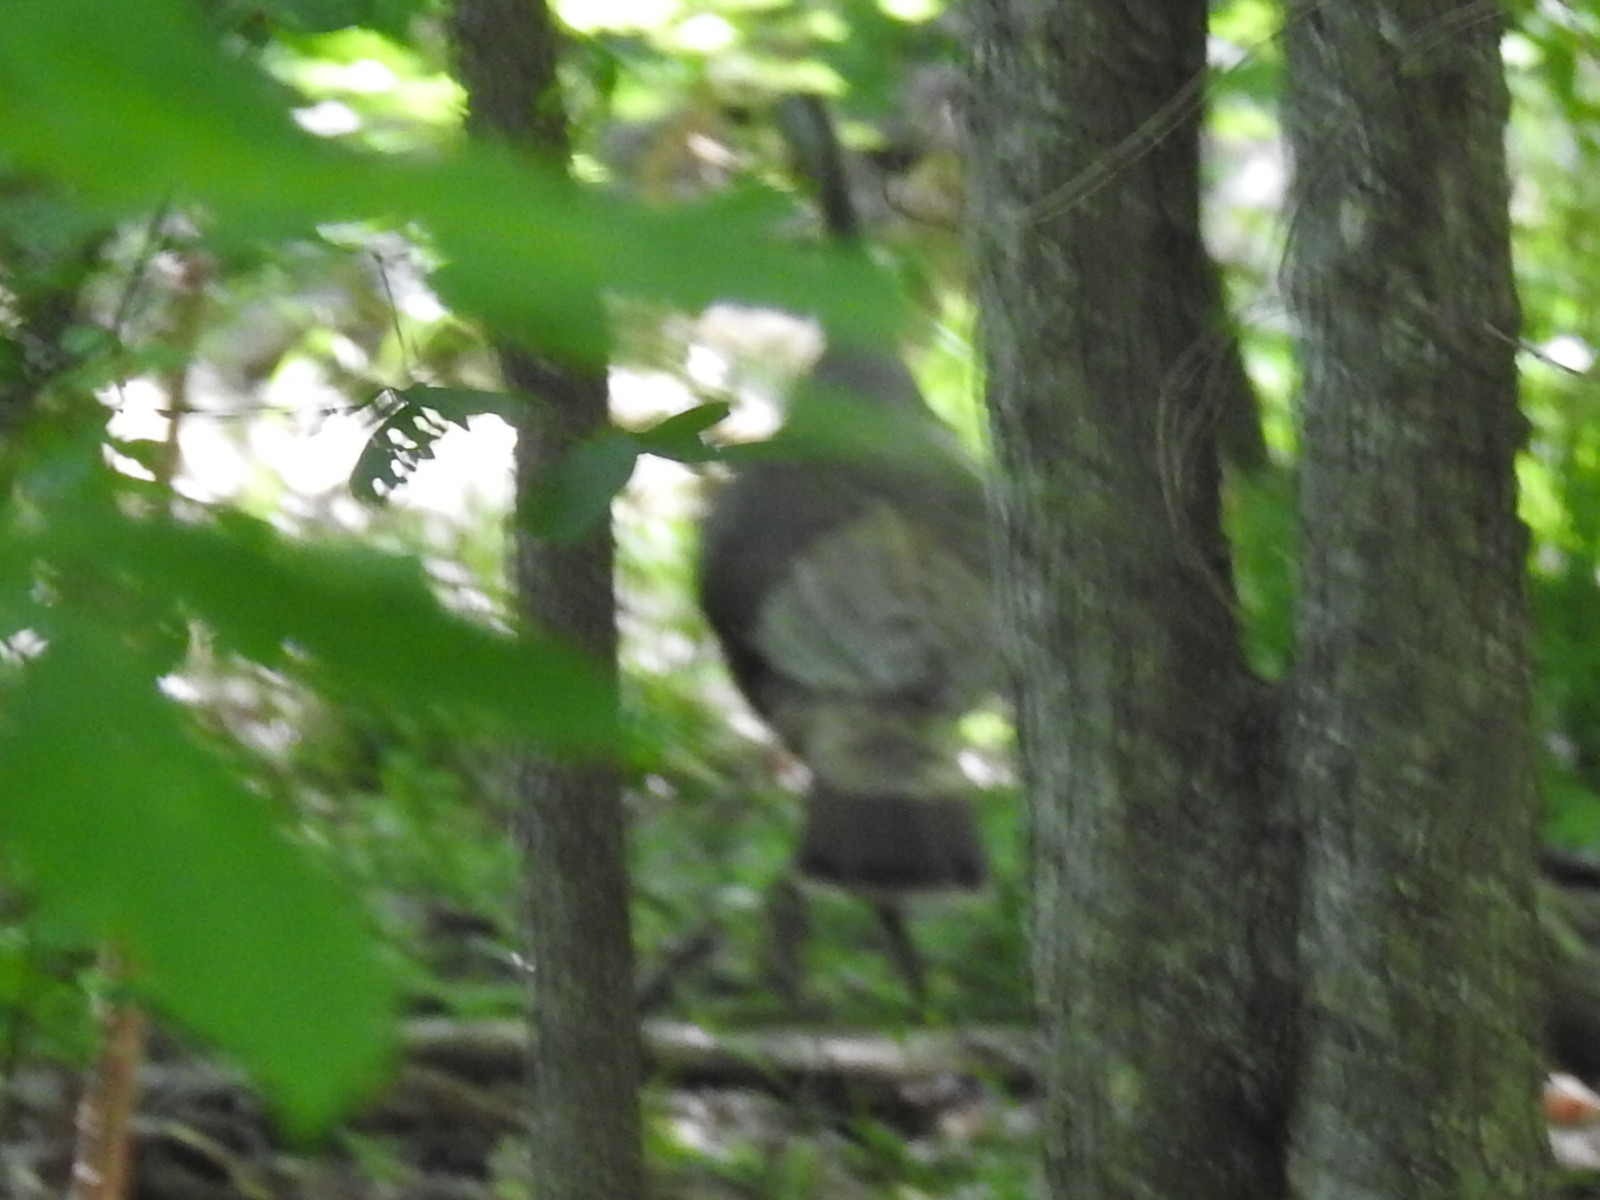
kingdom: Animalia
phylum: Chordata
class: Aves
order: Galliformes
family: Phasianidae
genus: Meleagris
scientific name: Meleagris gallopavo
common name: Wild turkey
